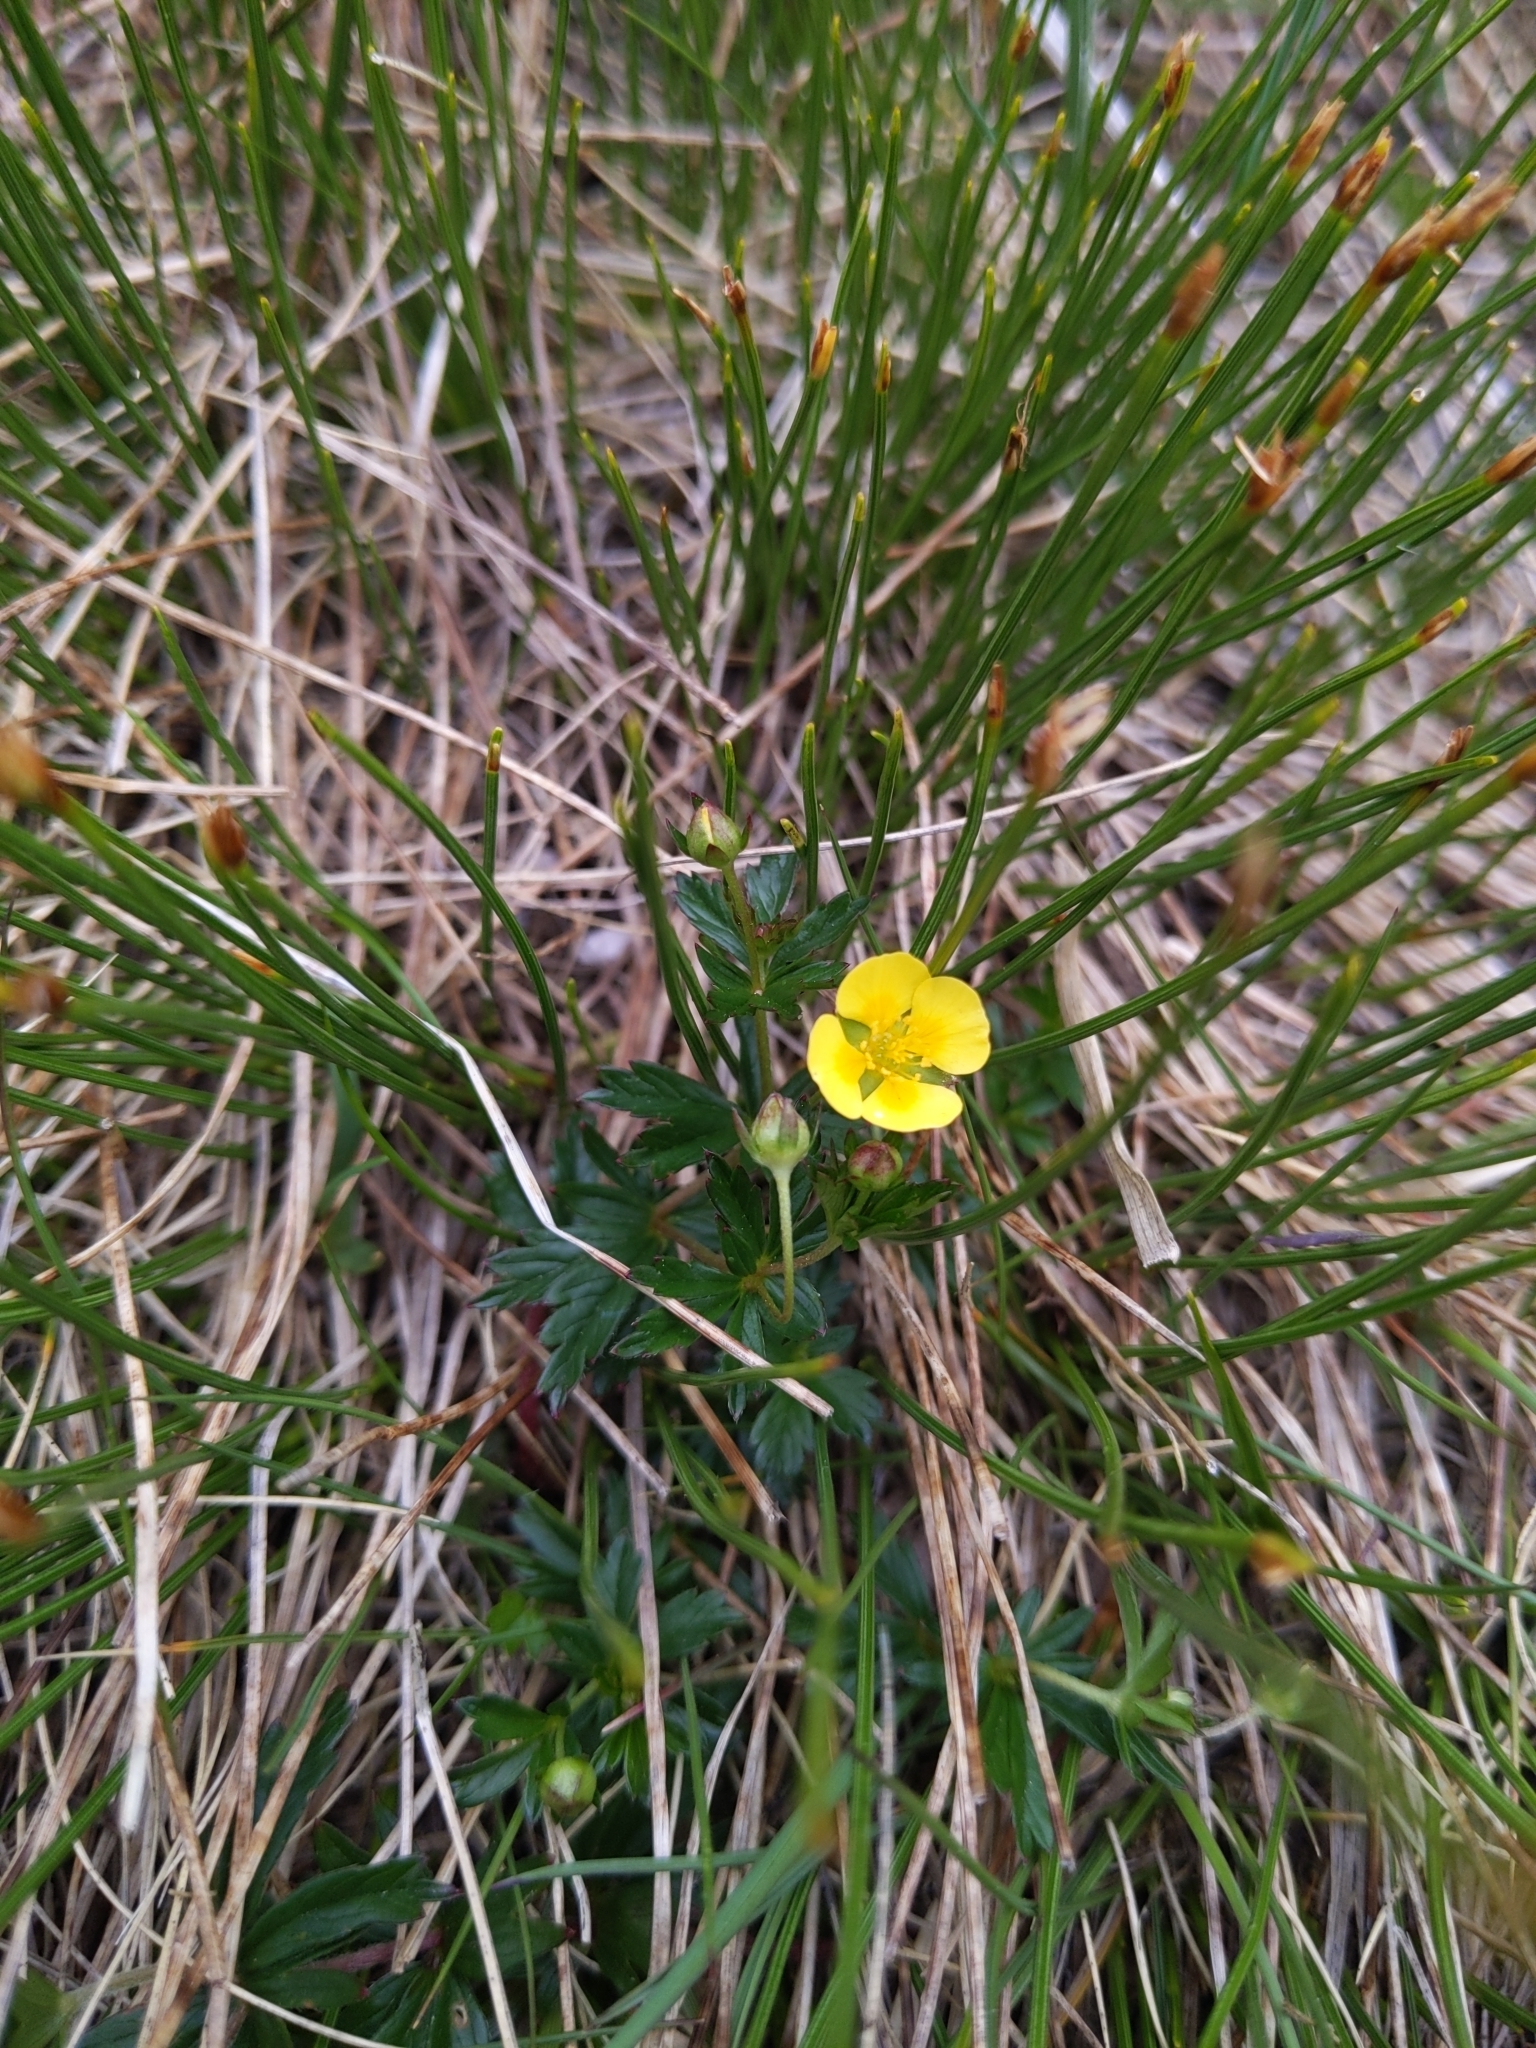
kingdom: Plantae
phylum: Tracheophyta
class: Magnoliopsida
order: Rosales
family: Rosaceae
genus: Potentilla
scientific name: Potentilla erecta
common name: Tormentil
